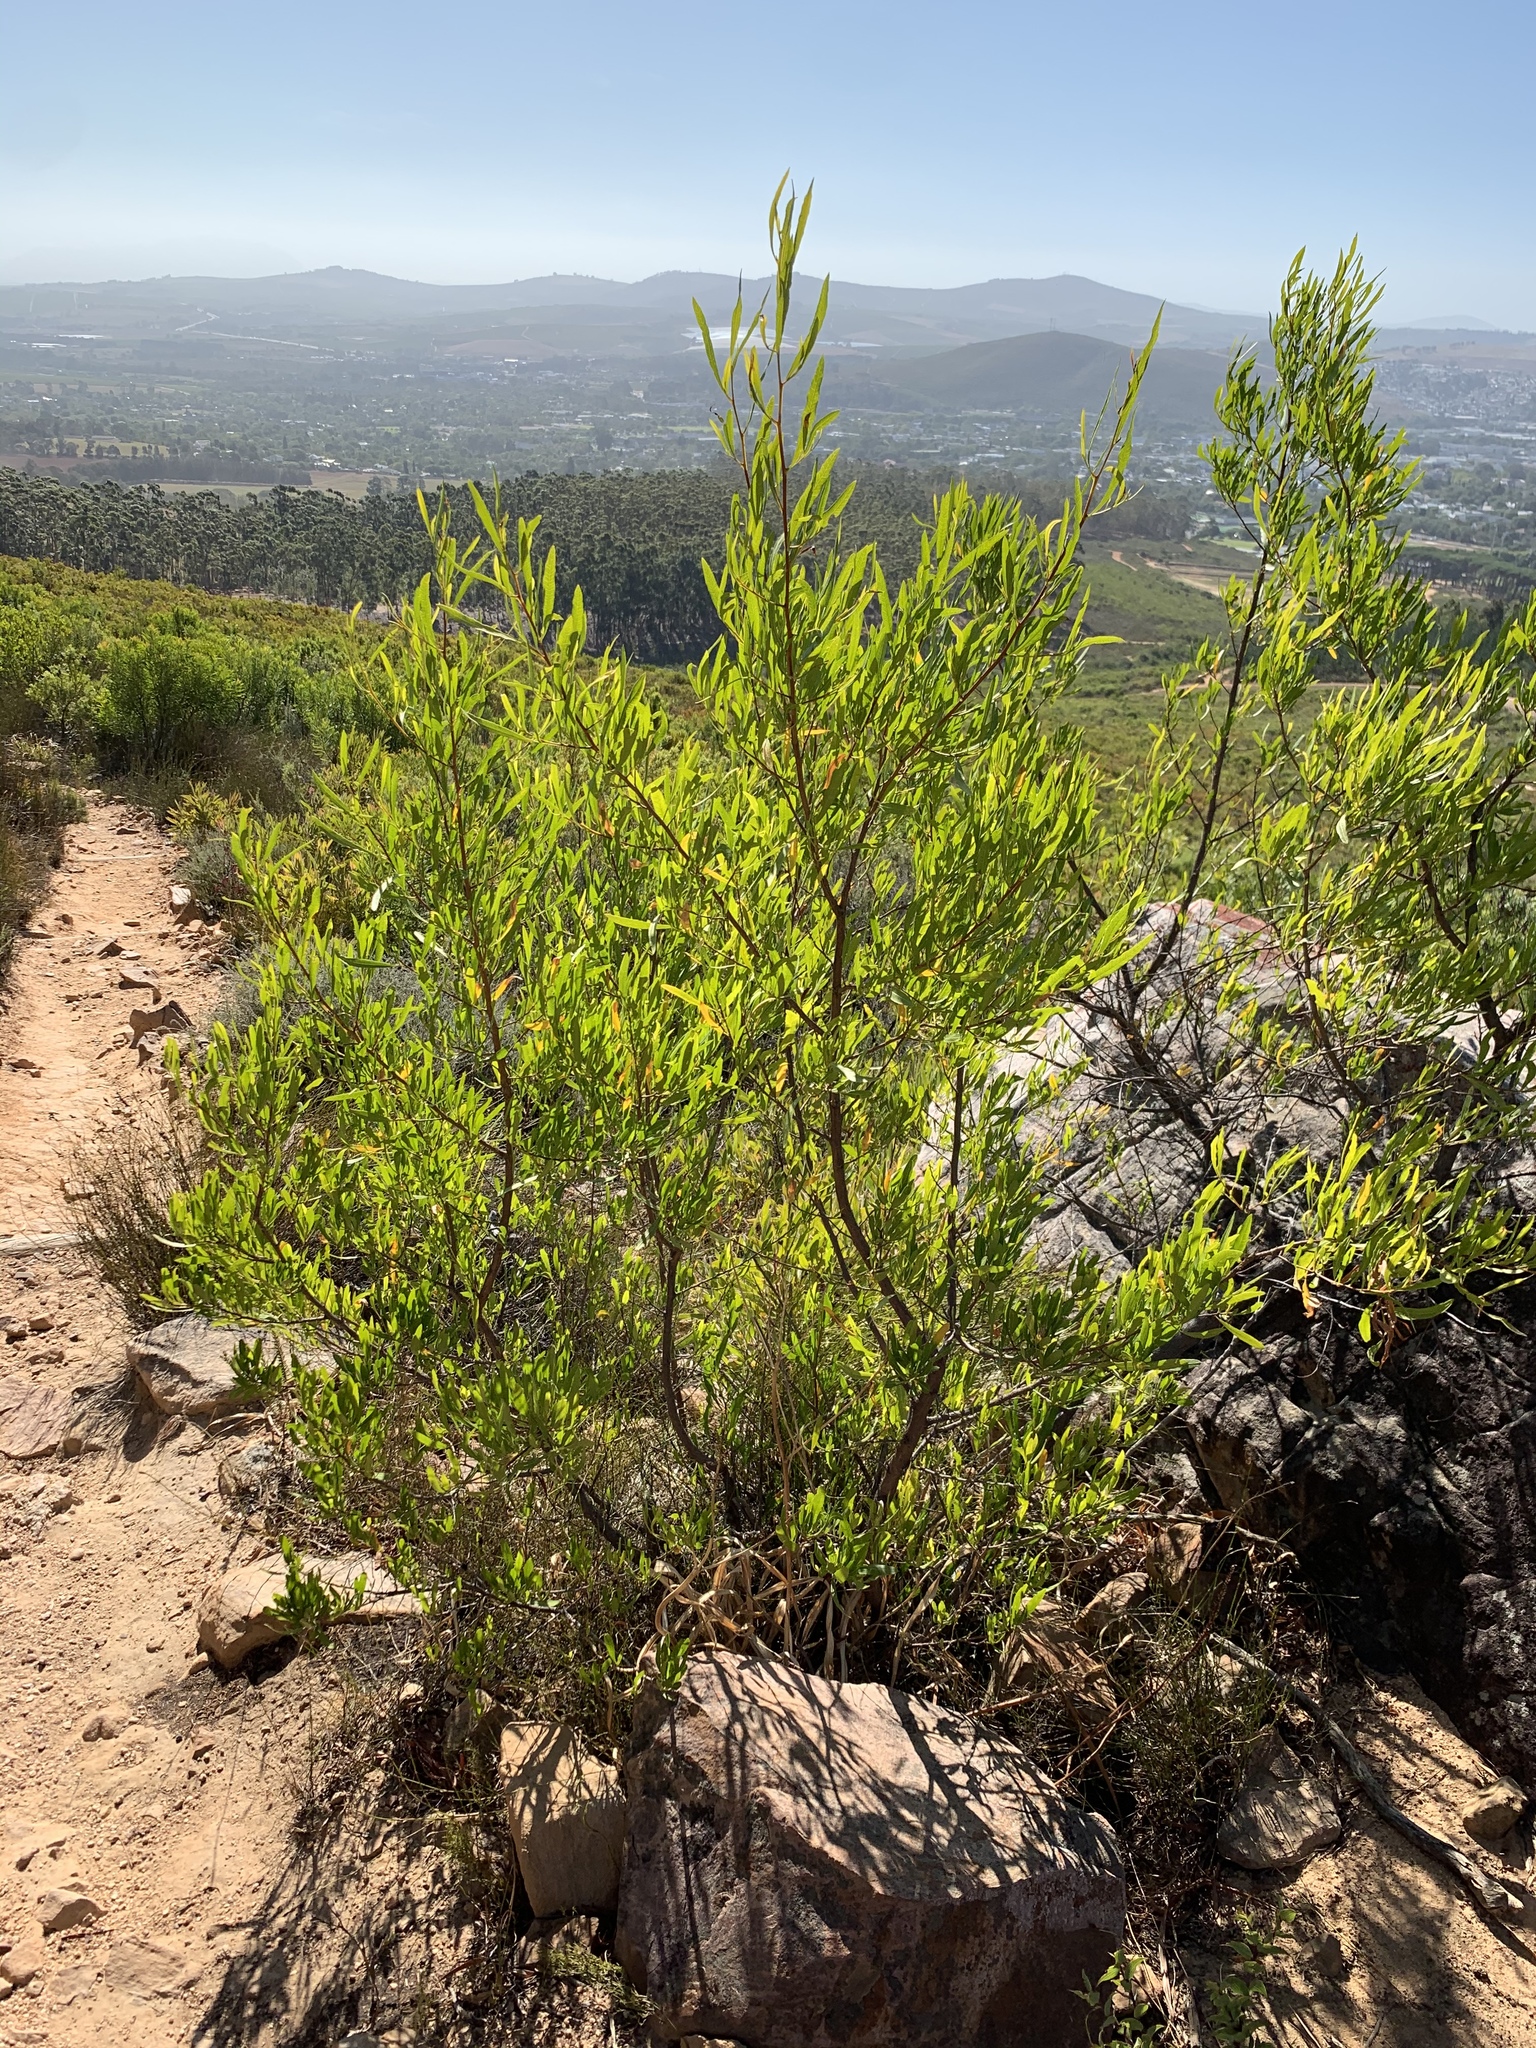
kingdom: Plantae
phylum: Tracheophyta
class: Magnoliopsida
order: Sapindales
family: Sapindaceae
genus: Dodonaea
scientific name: Dodonaea viscosa
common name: Hopbush
